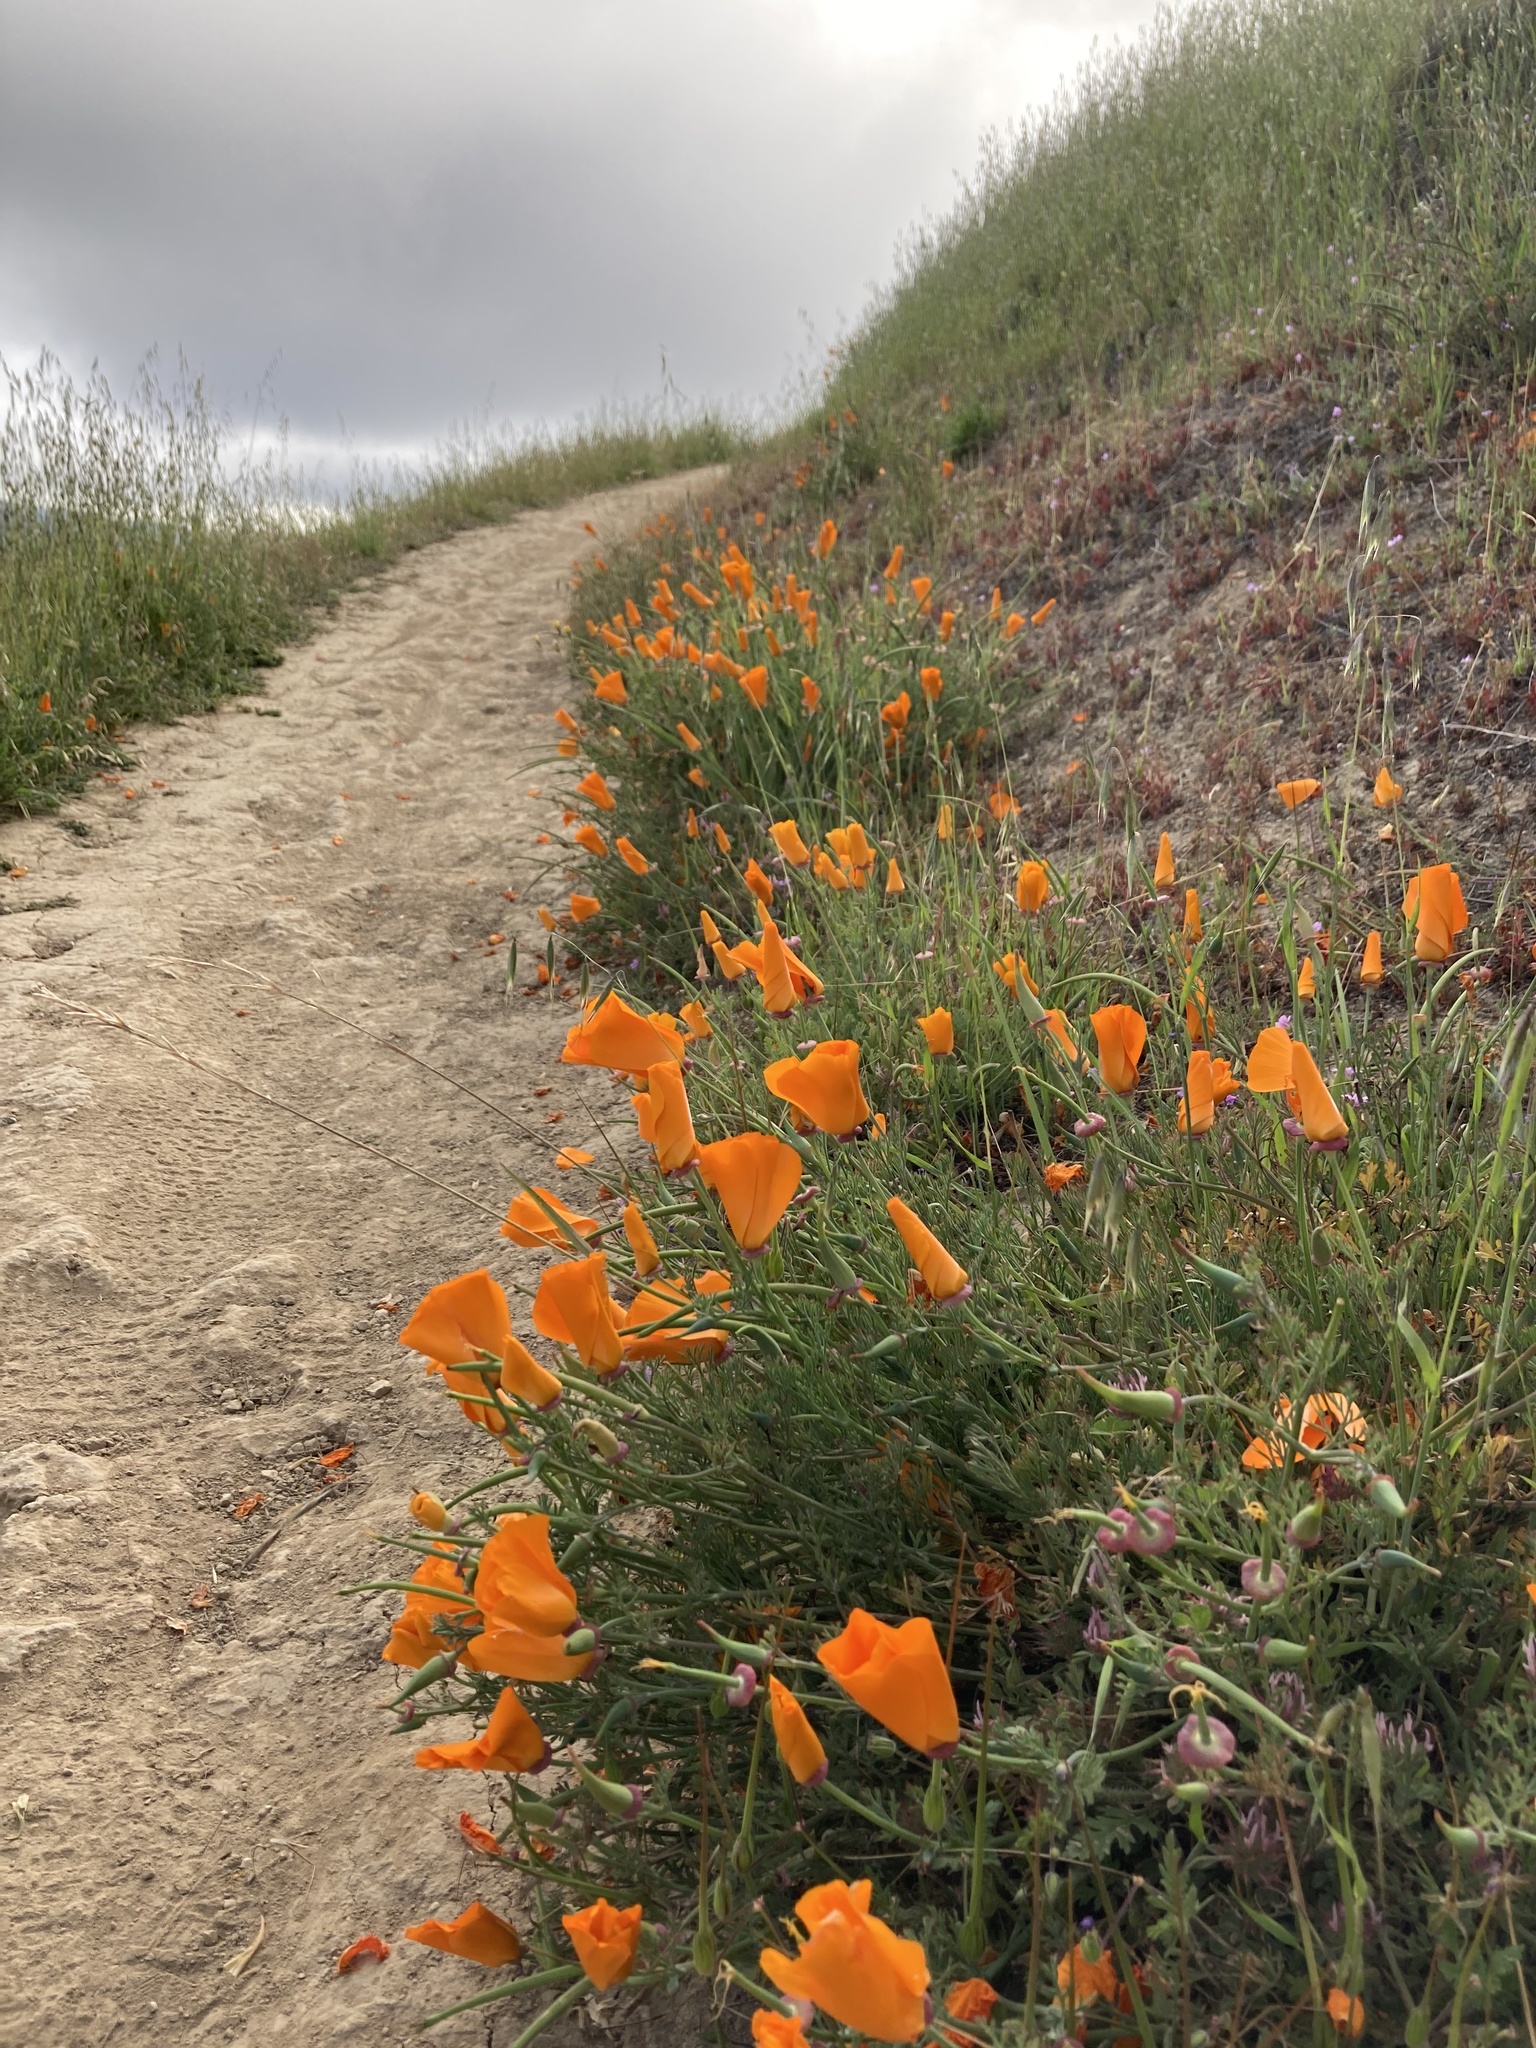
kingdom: Plantae
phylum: Tracheophyta
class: Magnoliopsida
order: Ranunculales
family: Papaveraceae
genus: Eschscholzia
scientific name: Eschscholzia californica
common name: California poppy
